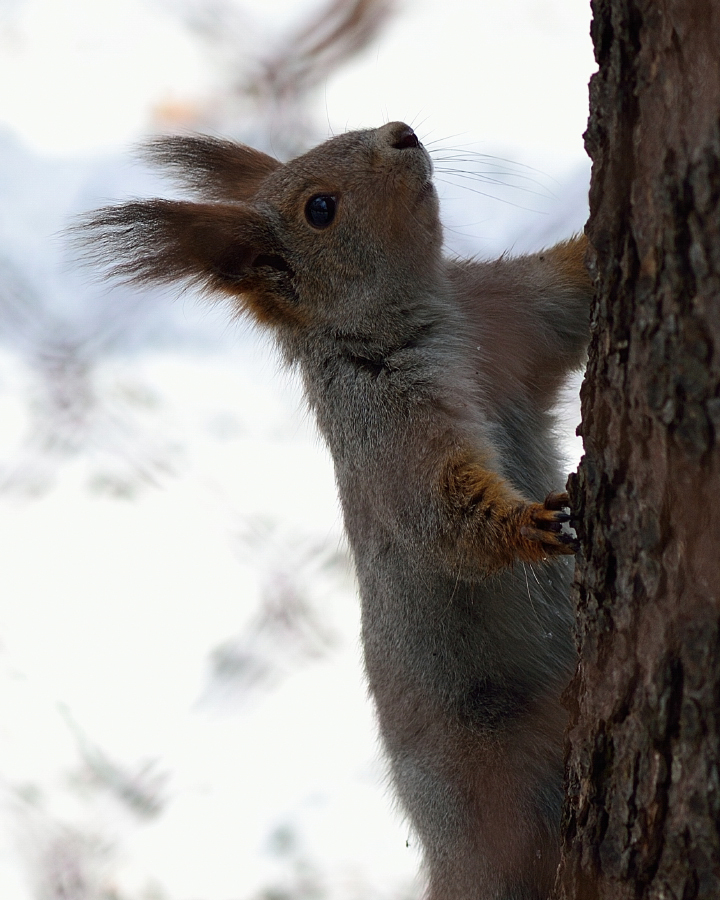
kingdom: Animalia
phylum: Chordata
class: Mammalia
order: Rodentia
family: Sciuridae
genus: Sciurus
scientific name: Sciurus vulgaris
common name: Eurasian red squirrel
